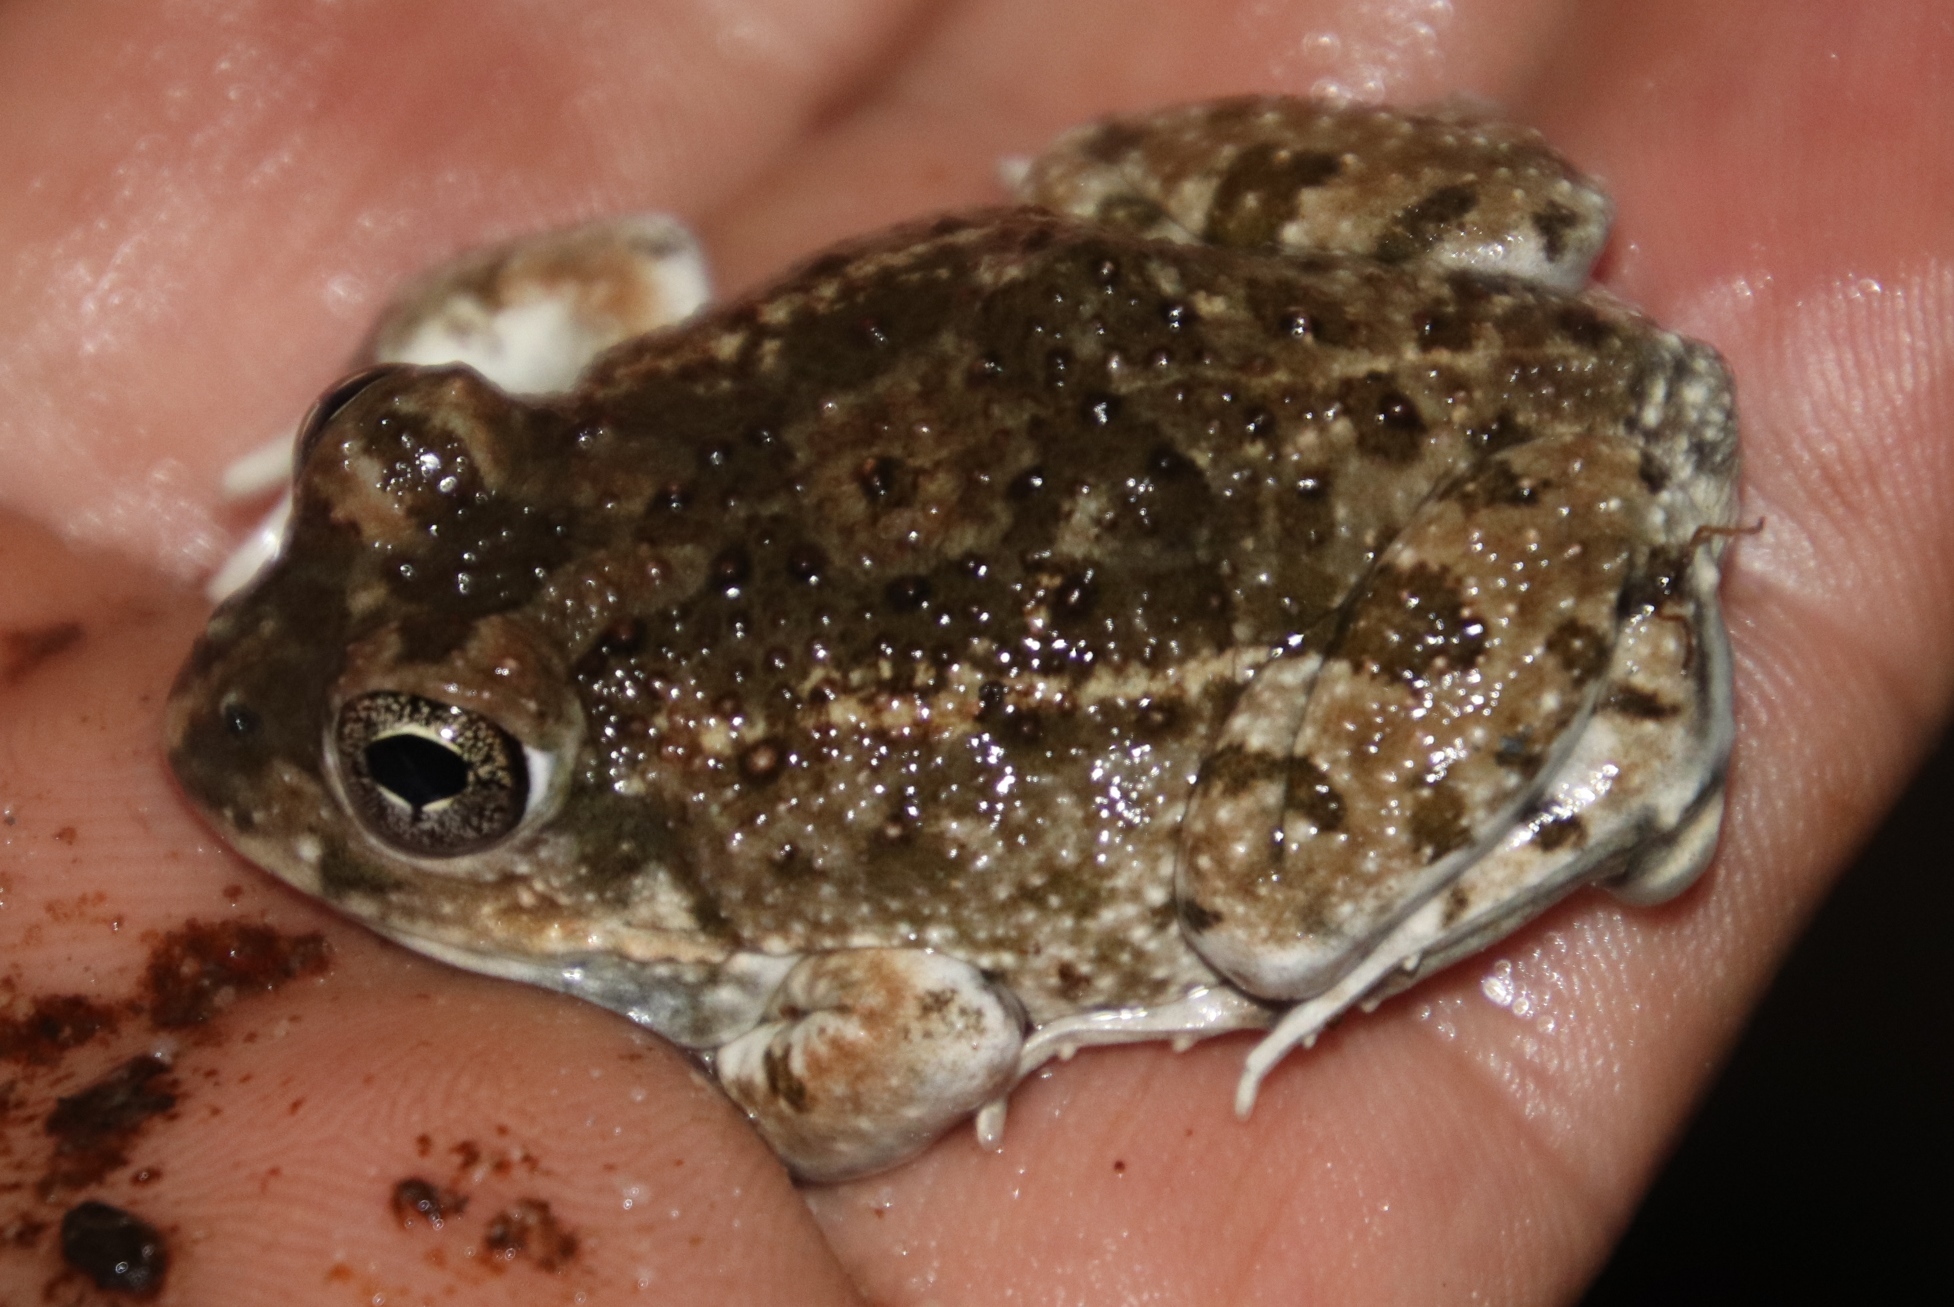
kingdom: Animalia
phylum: Chordata
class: Amphibia
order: Anura
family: Pyxicephalidae
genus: Tomopterna
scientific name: Tomopterna delalandii
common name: Delalande's burrowing bullfrog
